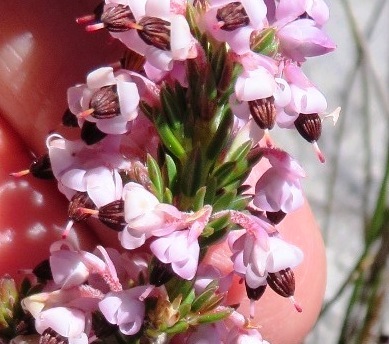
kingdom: Plantae
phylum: Tracheophyta
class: Magnoliopsida
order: Ericales
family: Ericaceae
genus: Erica
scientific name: Erica calycina
